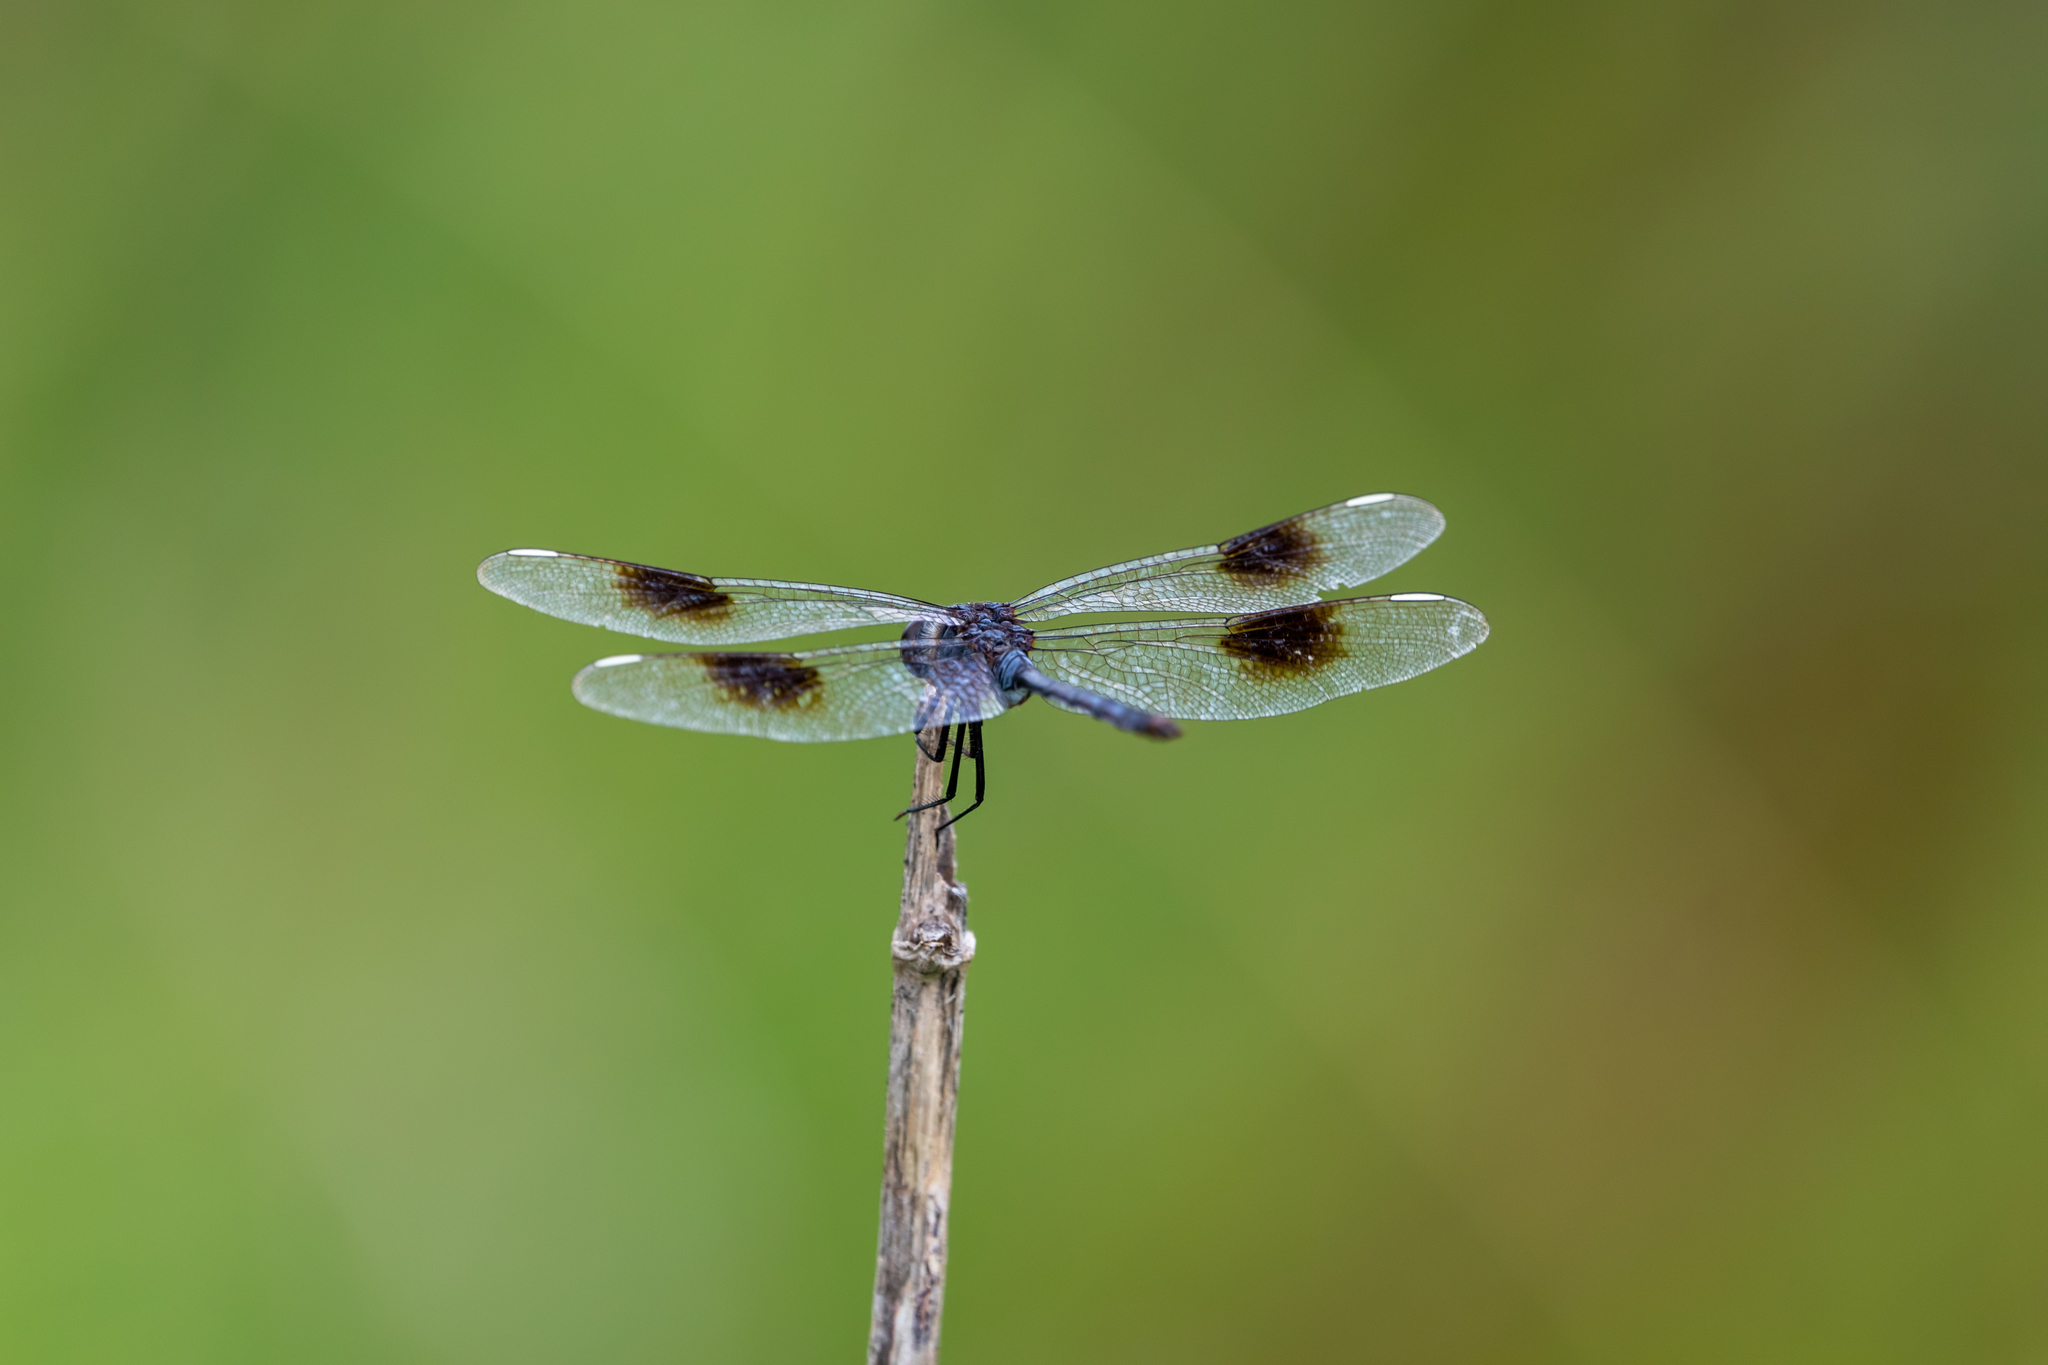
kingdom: Animalia
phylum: Arthropoda
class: Insecta
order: Odonata
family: Libellulidae
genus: Brachymesia
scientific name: Brachymesia gravida
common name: Four-spotted pennant
